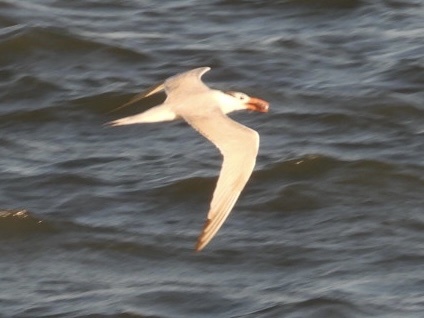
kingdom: Animalia
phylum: Chordata
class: Aves
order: Charadriiformes
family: Laridae
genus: Thalasseus
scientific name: Thalasseus maximus
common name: Royal tern
